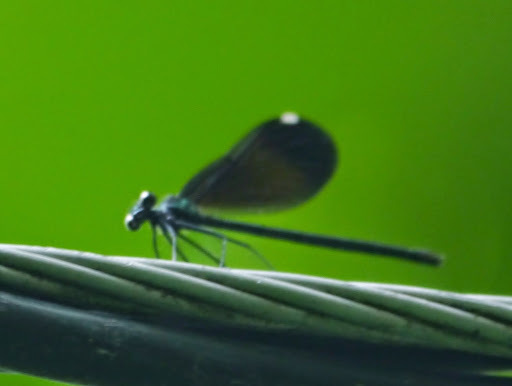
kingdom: Animalia
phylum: Arthropoda
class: Insecta
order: Odonata
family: Calopterygidae
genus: Calopteryx
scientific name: Calopteryx maculata
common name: Ebony jewelwing
